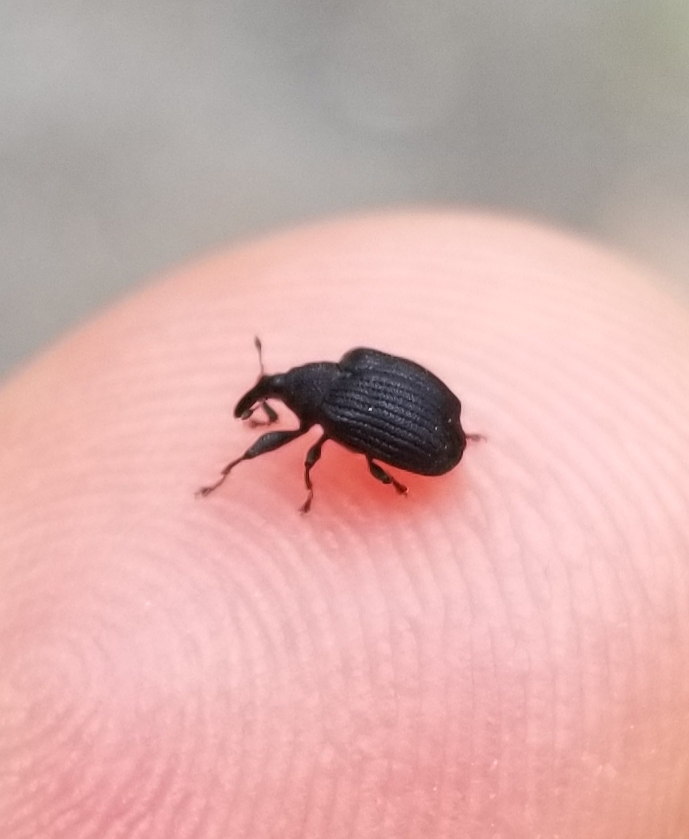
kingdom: Animalia
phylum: Arthropoda
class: Insecta
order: Coleoptera
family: Curculionidae
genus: Odontopus
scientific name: Odontopus calceatus
